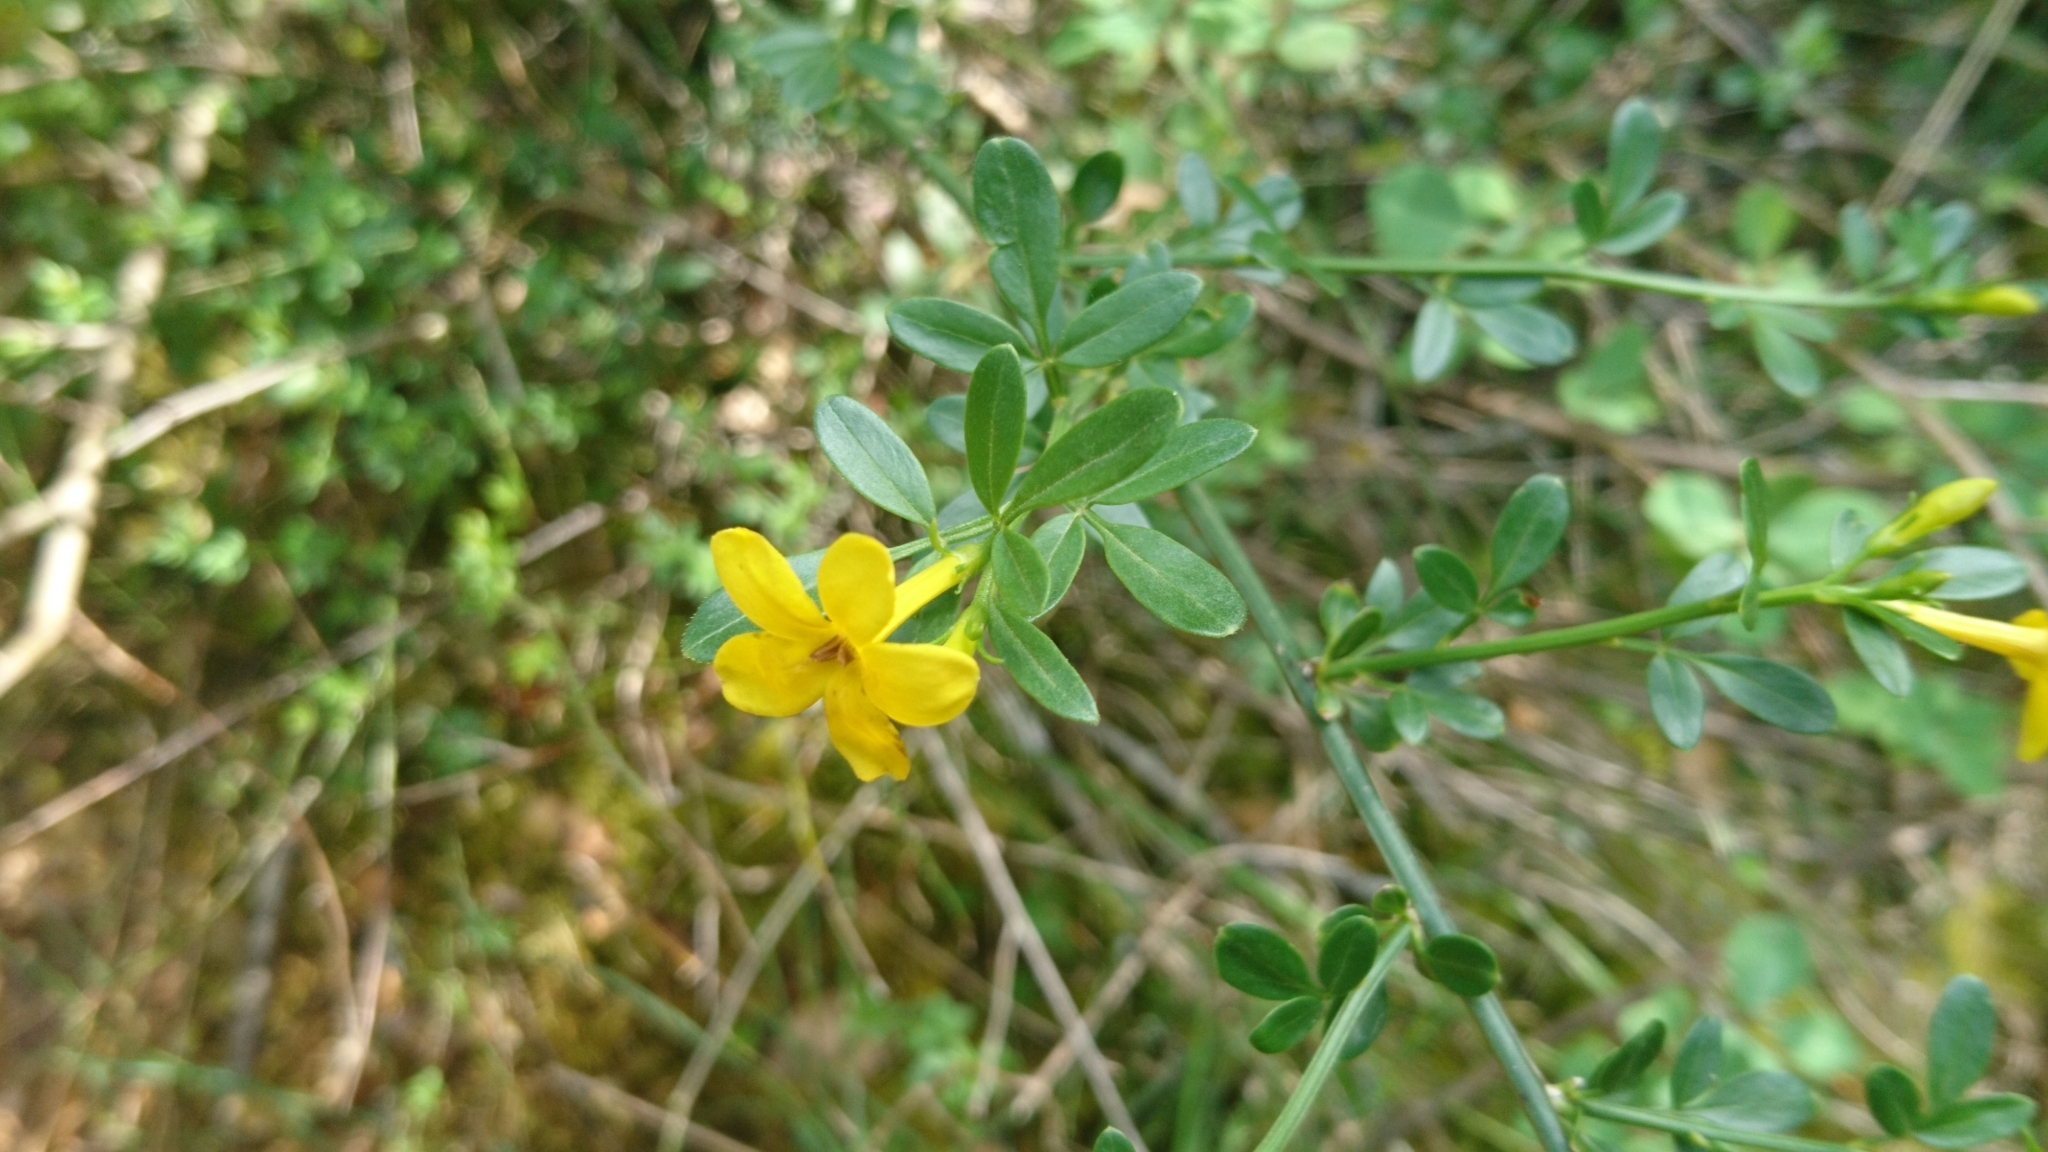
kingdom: Plantae
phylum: Tracheophyta
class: Magnoliopsida
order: Lamiales
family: Oleaceae
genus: Chrysojasminum
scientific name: Chrysojasminum fruticans
